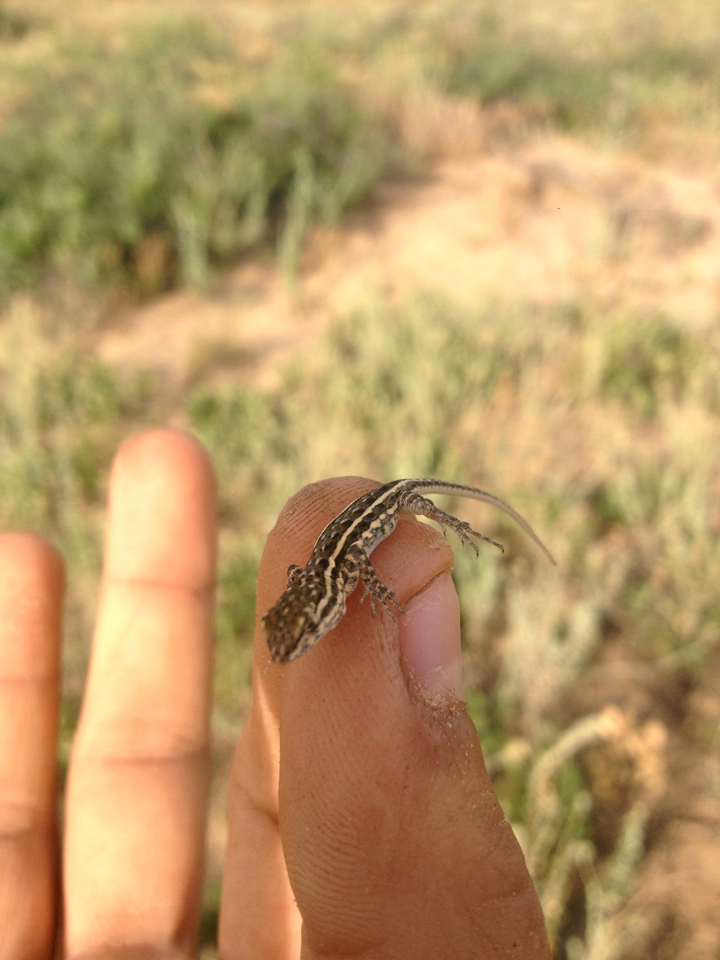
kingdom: Animalia
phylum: Chordata
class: Squamata
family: Phrynosomatidae
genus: Uta
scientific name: Uta stansburiana
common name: Side-blotched lizard
